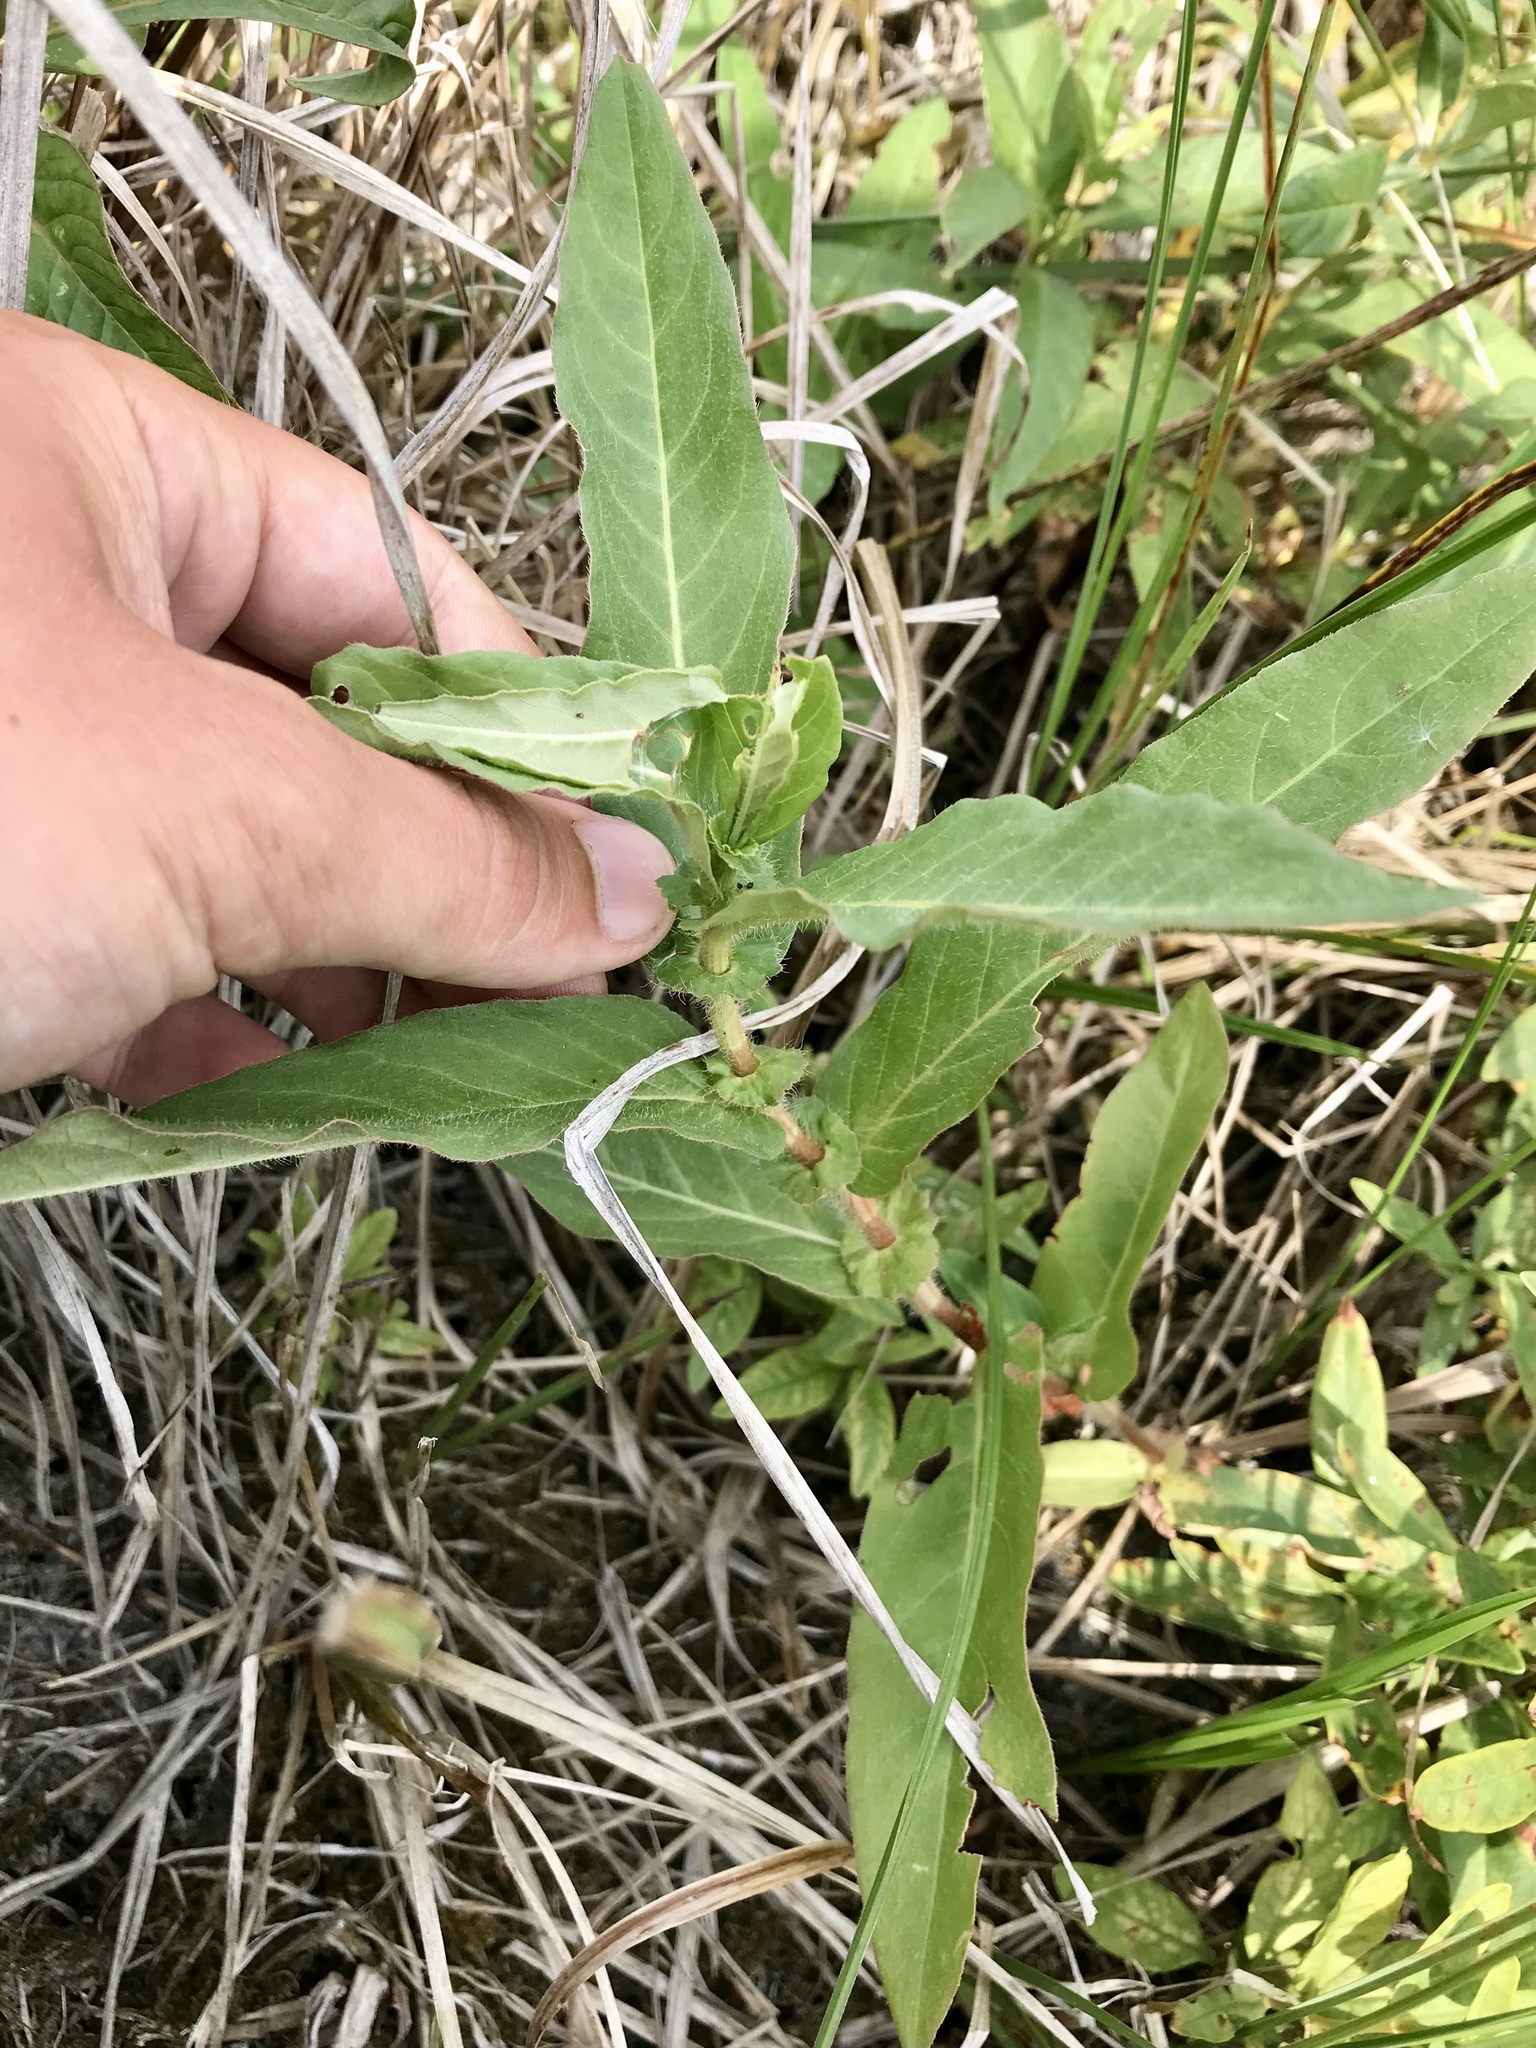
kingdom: Plantae
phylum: Tracheophyta
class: Magnoliopsida
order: Caryophyllales
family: Polygonaceae
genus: Persicaria
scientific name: Persicaria amphibia
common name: Amphibious bistort
